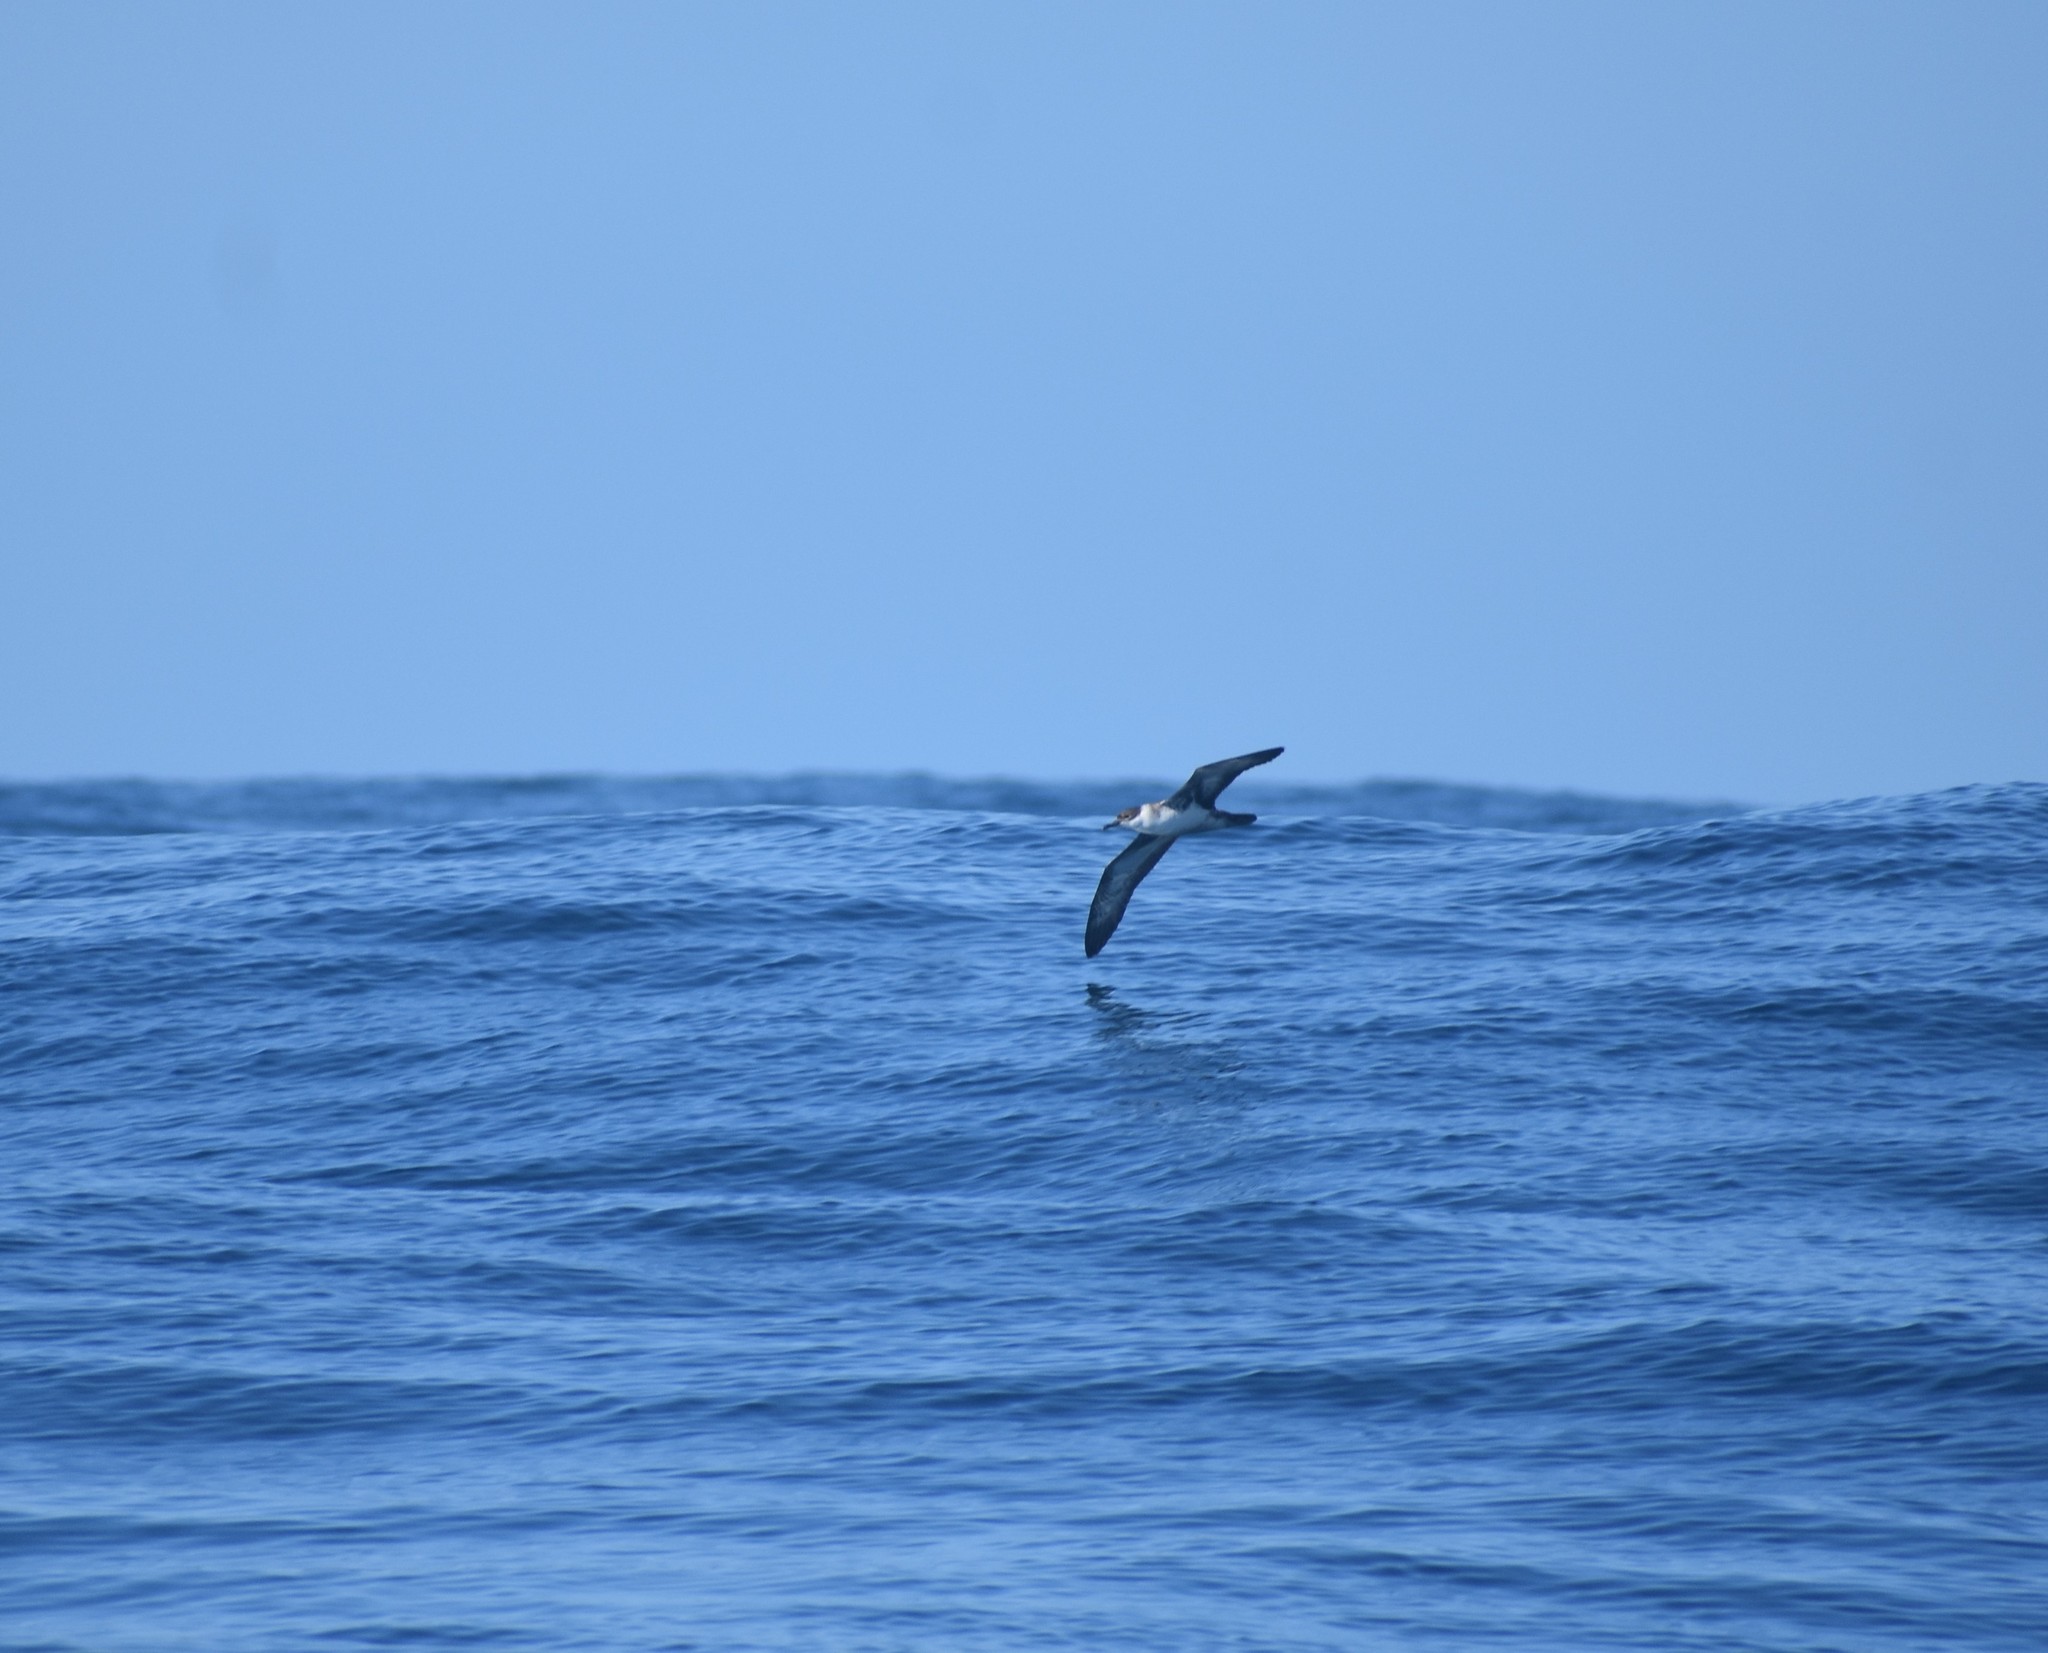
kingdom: Animalia
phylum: Chordata
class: Aves
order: Procellariiformes
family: Procellariidae
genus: Puffinus
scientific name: Puffinus gravis
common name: Great shearwater
